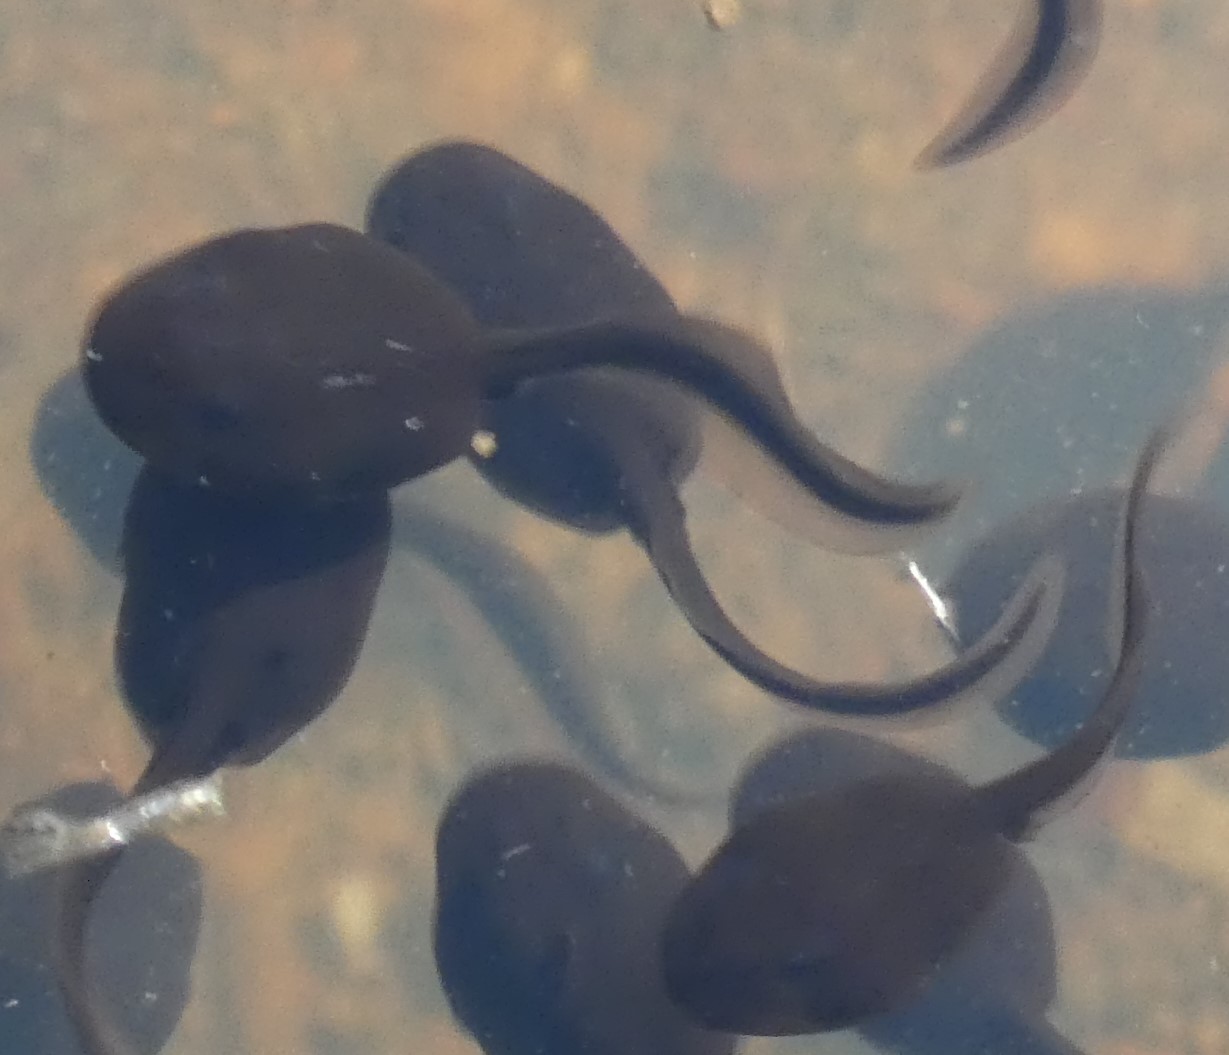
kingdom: Animalia
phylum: Chordata
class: Amphibia
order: Anura
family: Bufonidae
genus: Bufo
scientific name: Bufo bufo
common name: Common toad
